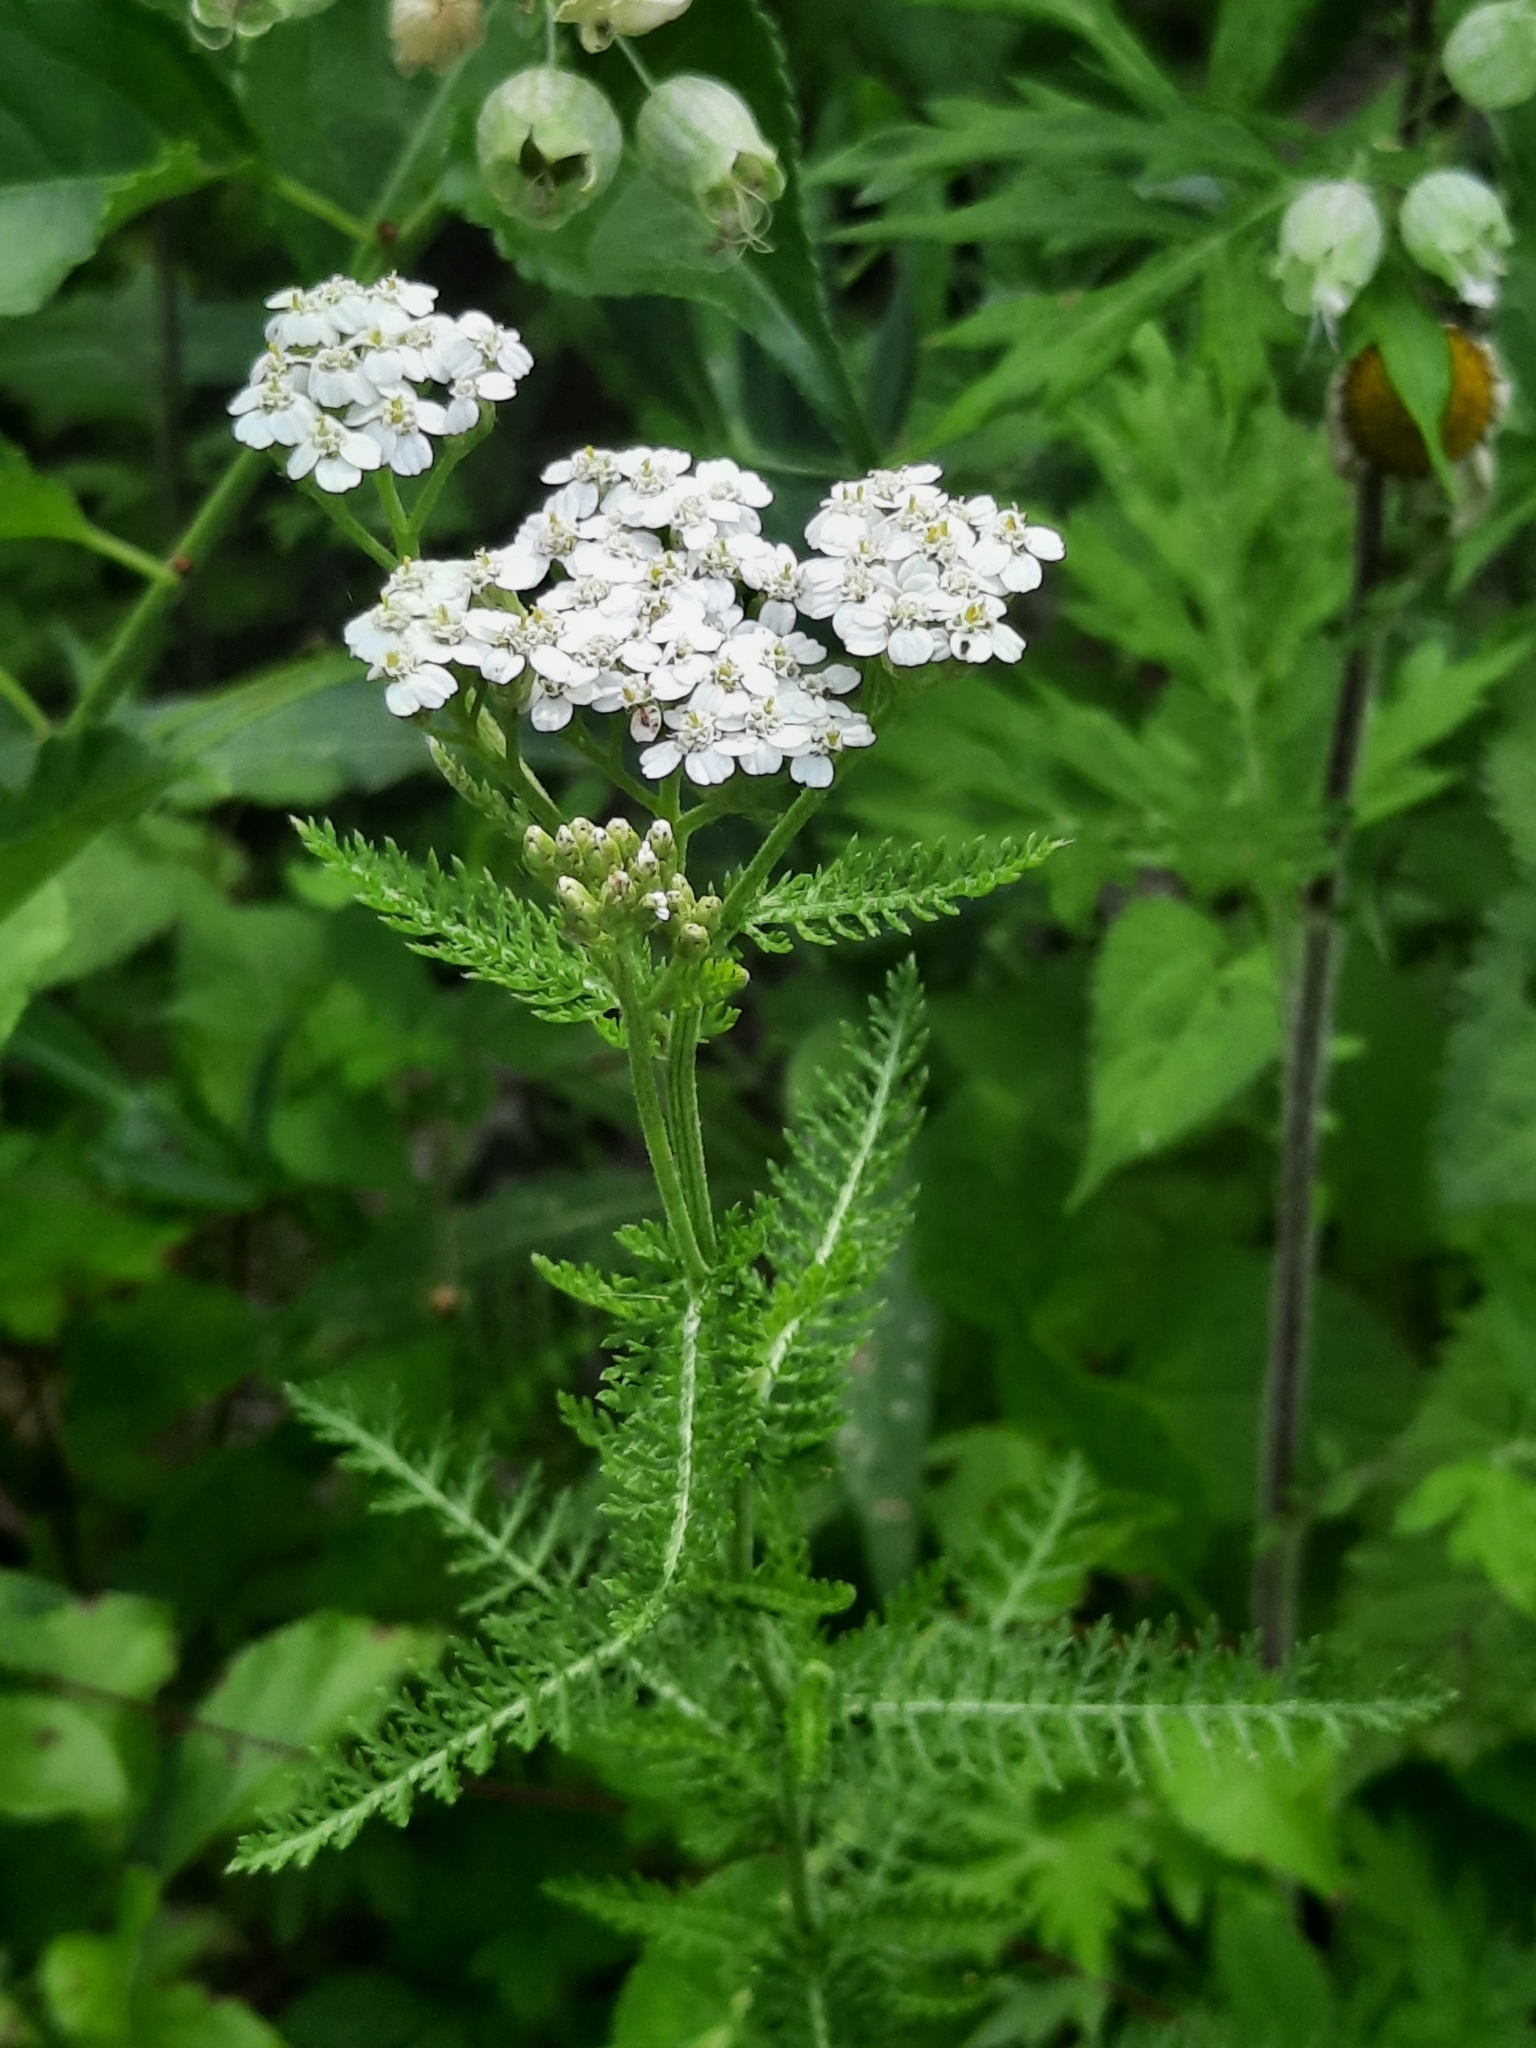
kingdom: Plantae
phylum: Tracheophyta
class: Magnoliopsida
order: Asterales
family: Asteraceae
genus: Achillea
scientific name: Achillea millefolium
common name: Yarrow
